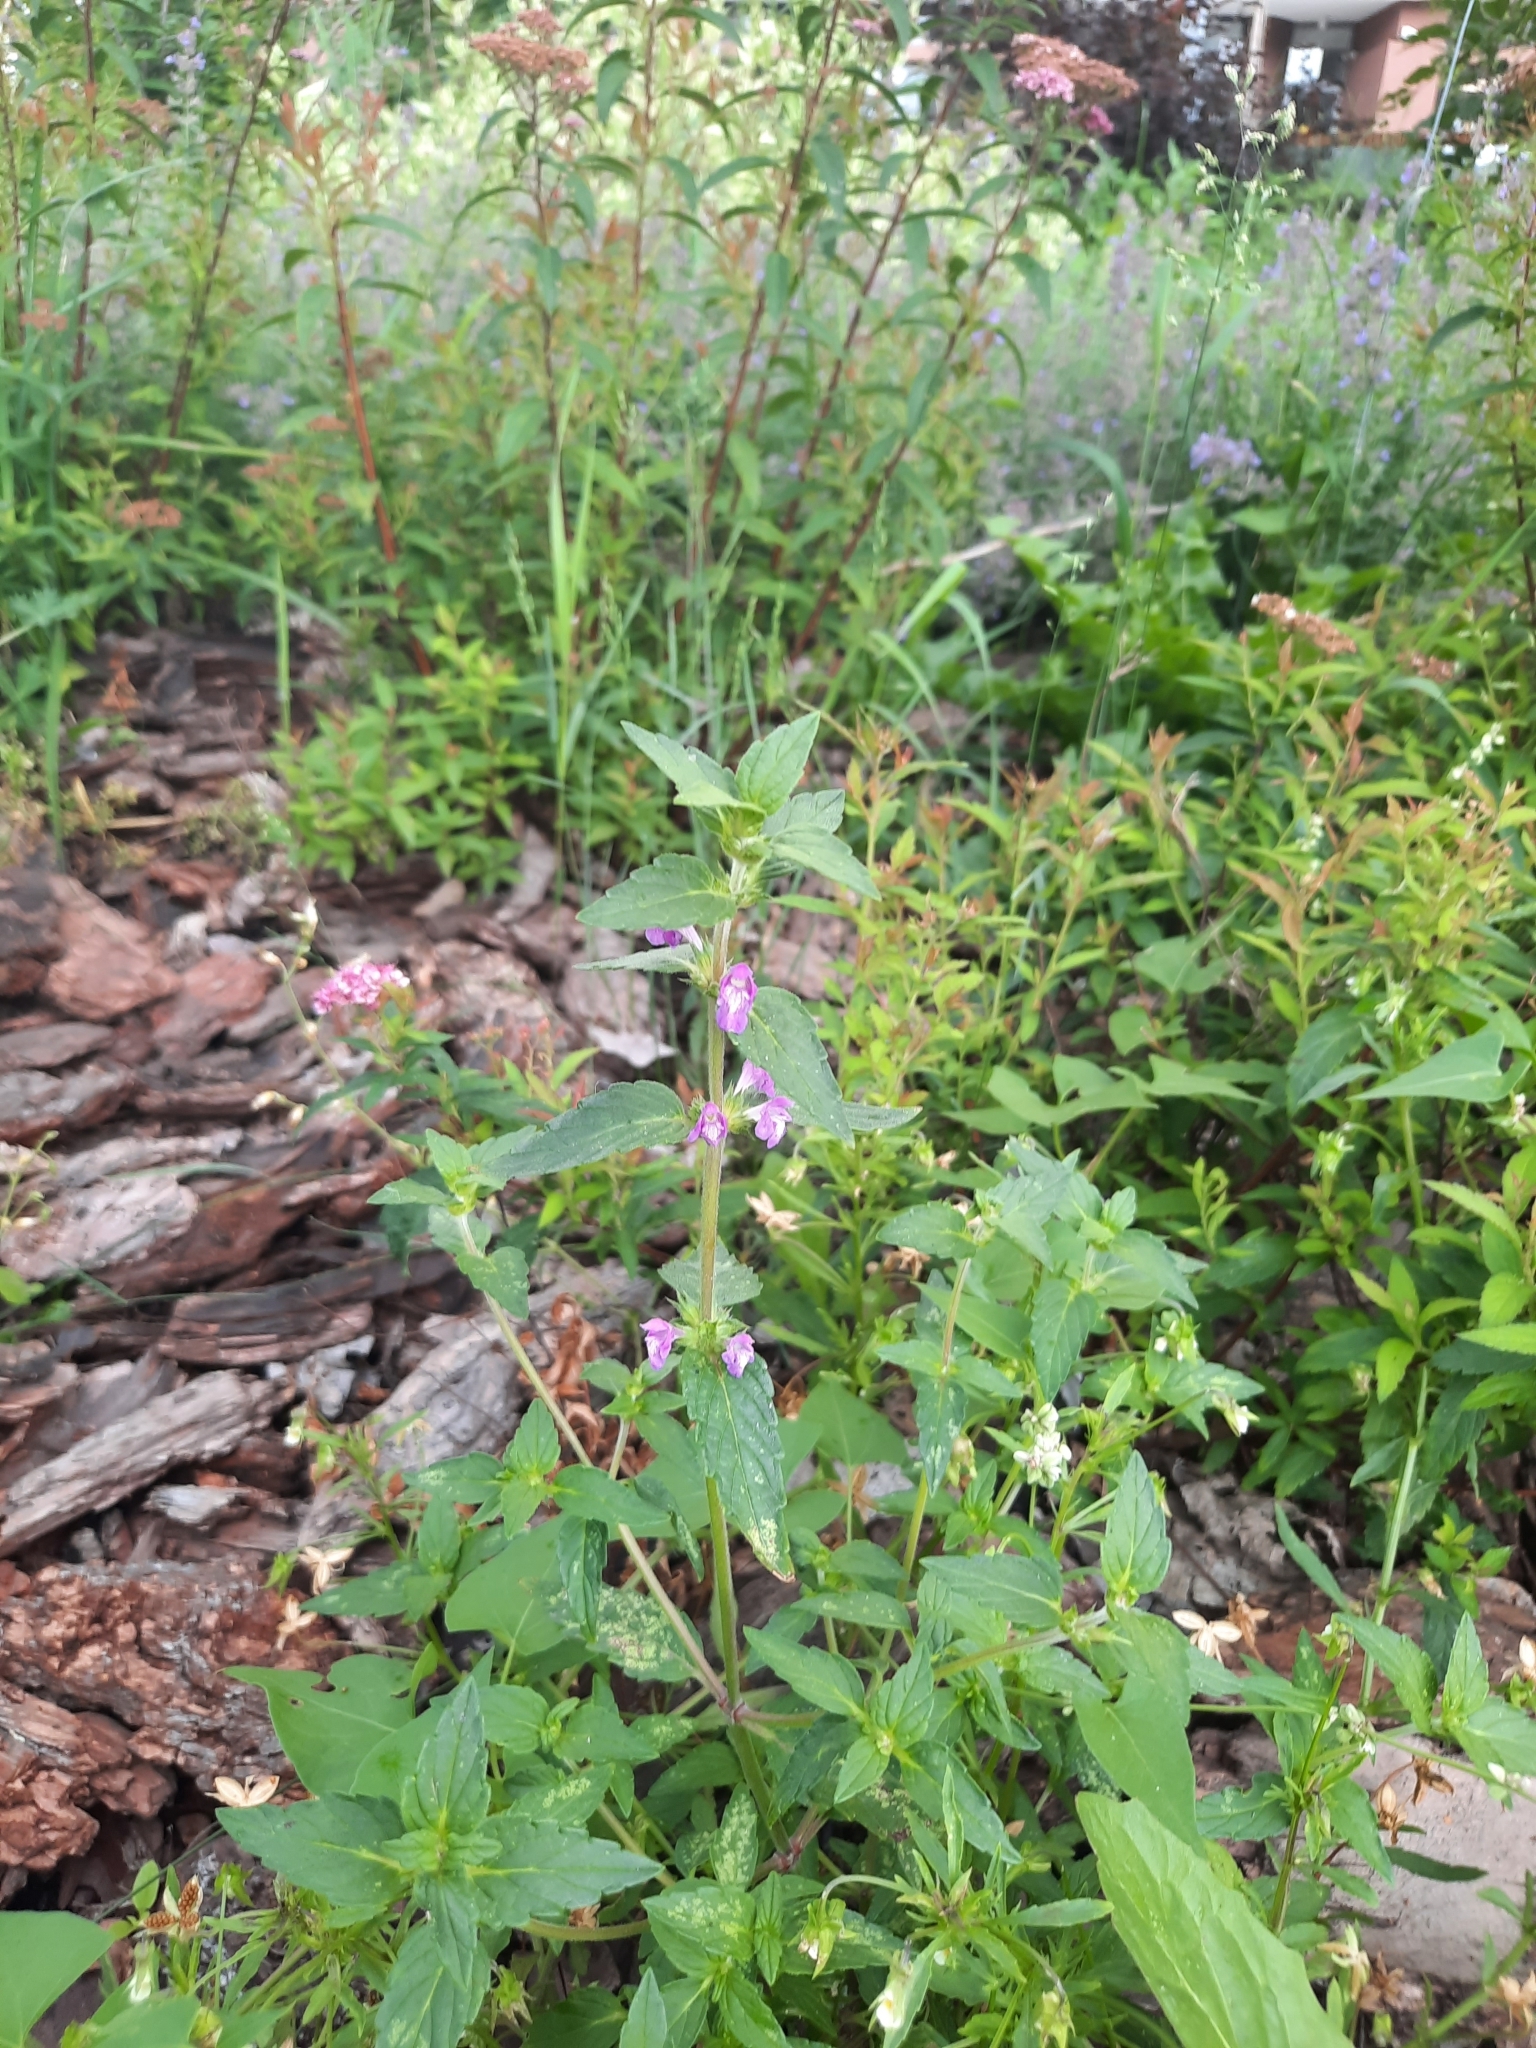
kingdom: Plantae
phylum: Tracheophyta
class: Magnoliopsida
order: Lamiales
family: Lamiaceae
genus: Galeopsis
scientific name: Galeopsis ladanum
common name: Broad-leaved hemp-nettle
